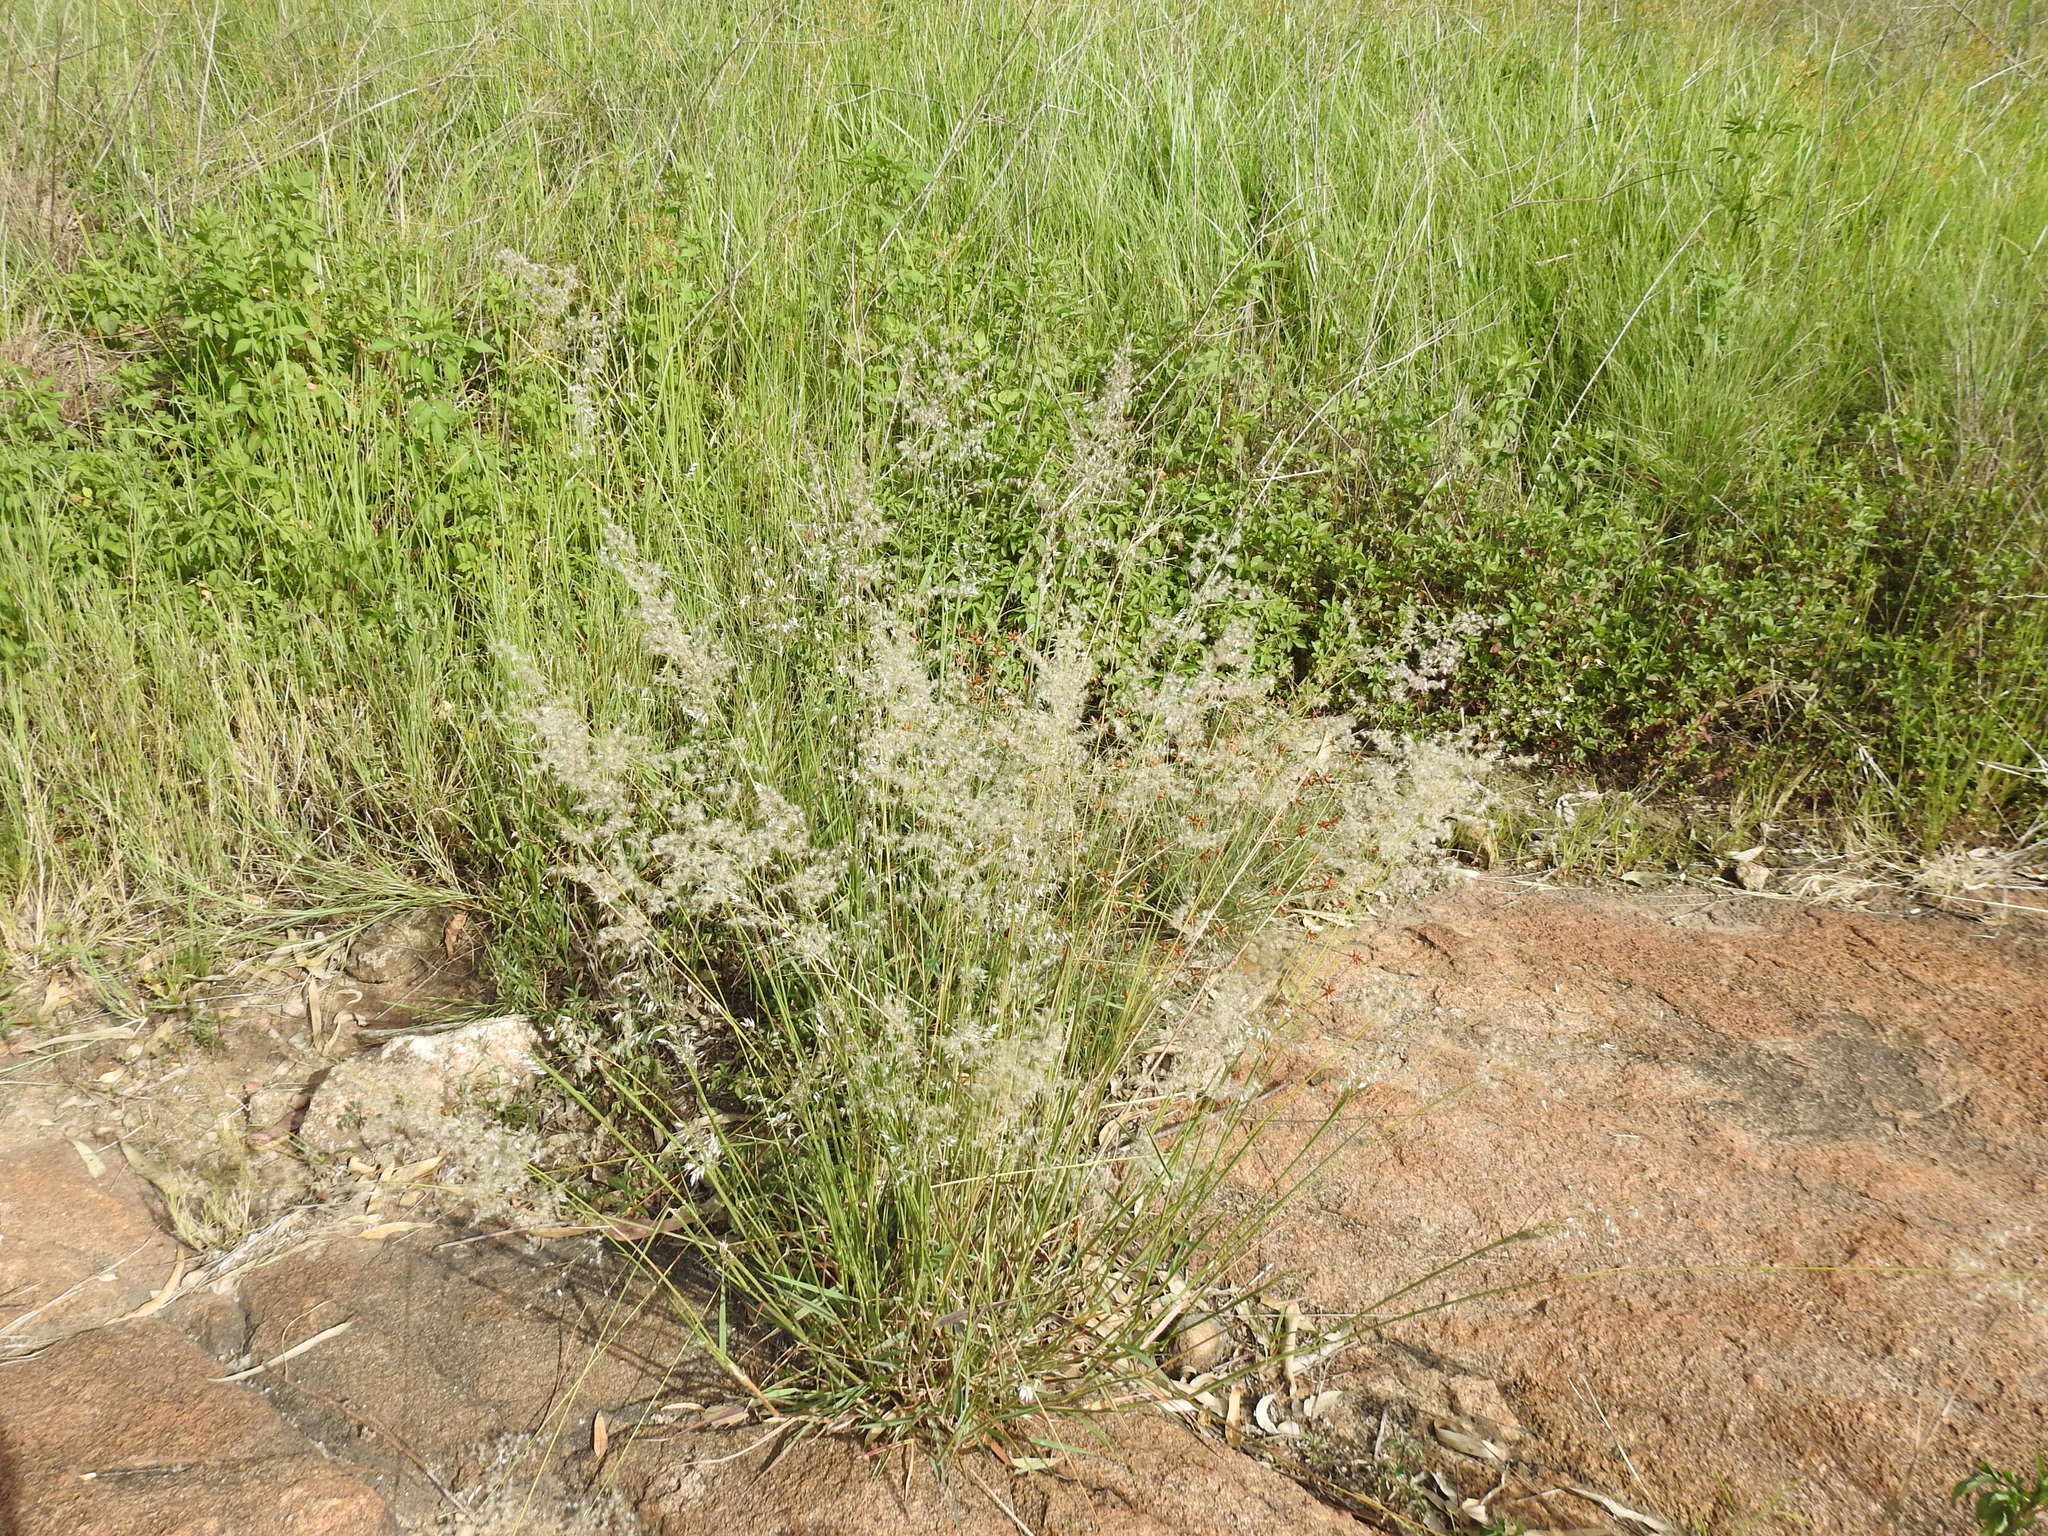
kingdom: Plantae
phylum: Tracheophyta
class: Liliopsida
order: Poales
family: Poaceae
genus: Melinis
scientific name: Melinis repens
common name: Rose natal grass
